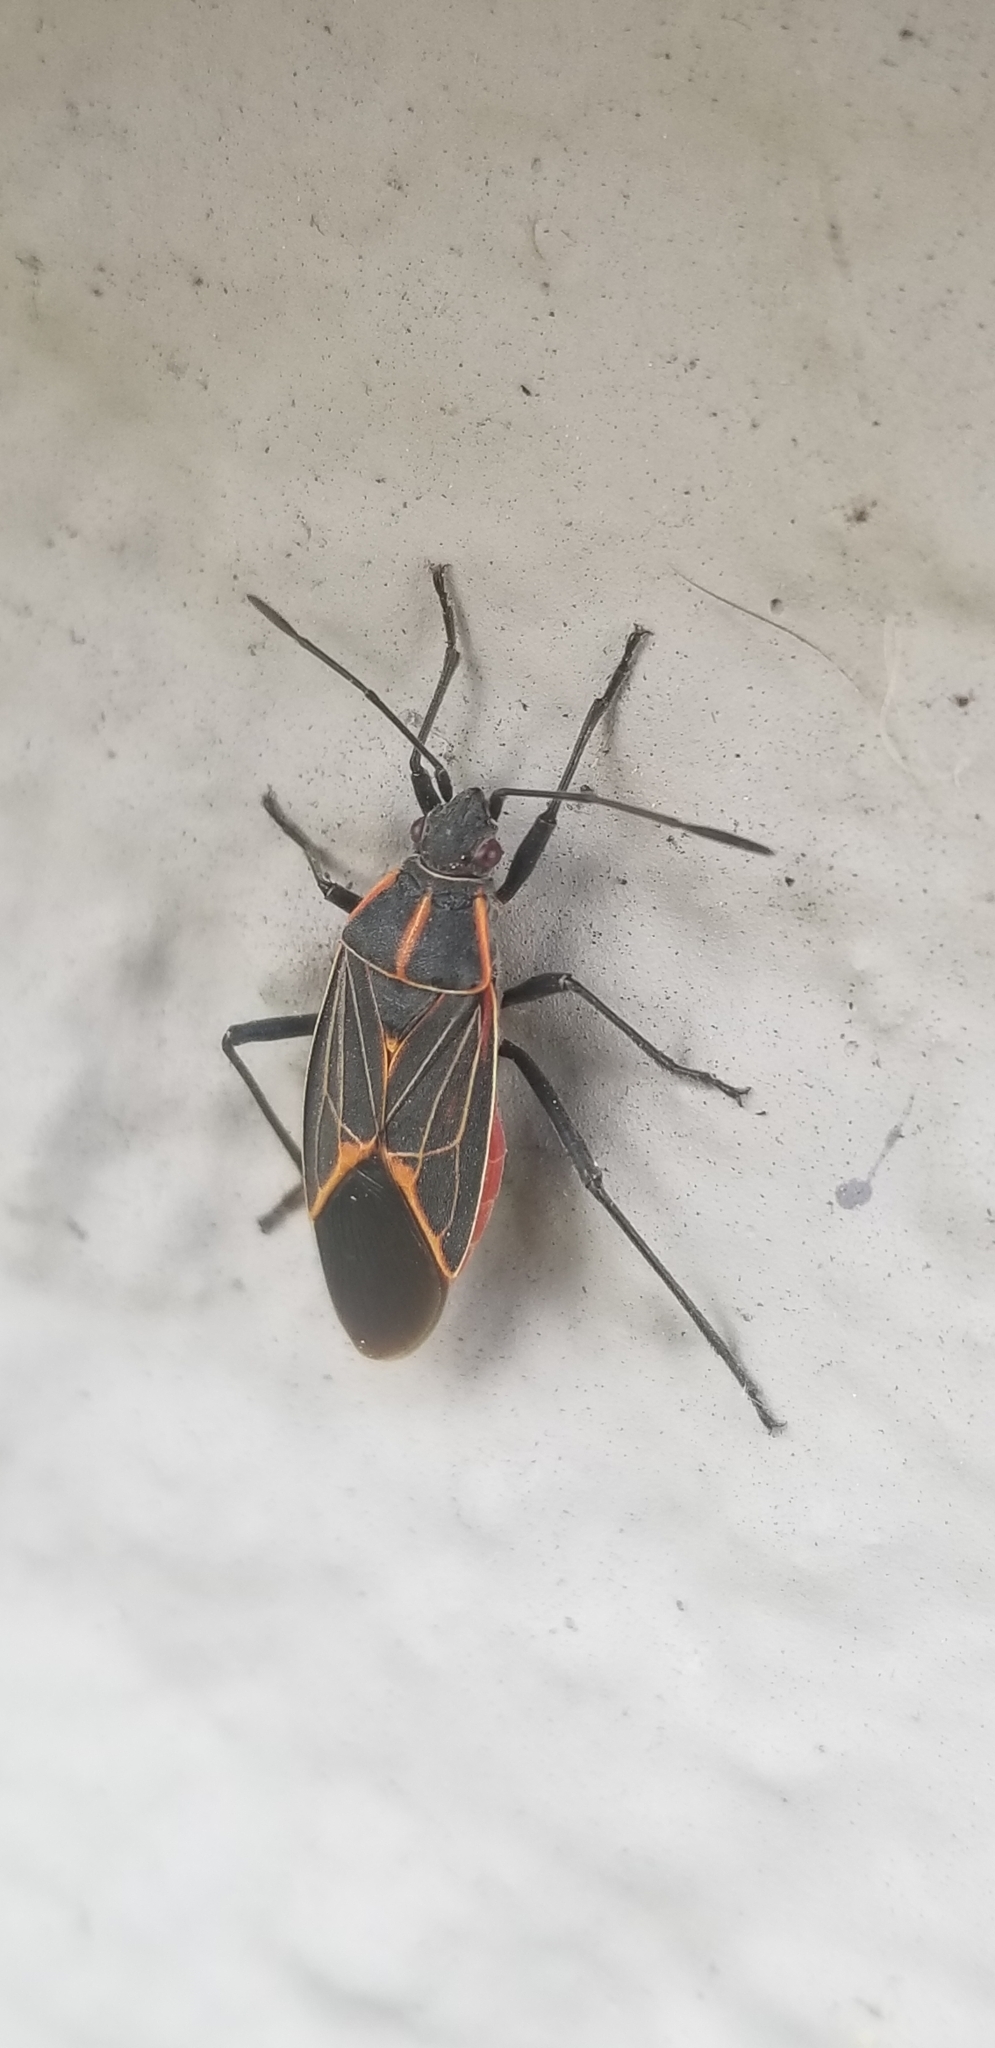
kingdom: Animalia
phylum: Arthropoda
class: Insecta
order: Hemiptera
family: Rhopalidae
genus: Boisea
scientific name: Boisea rubrolineata
